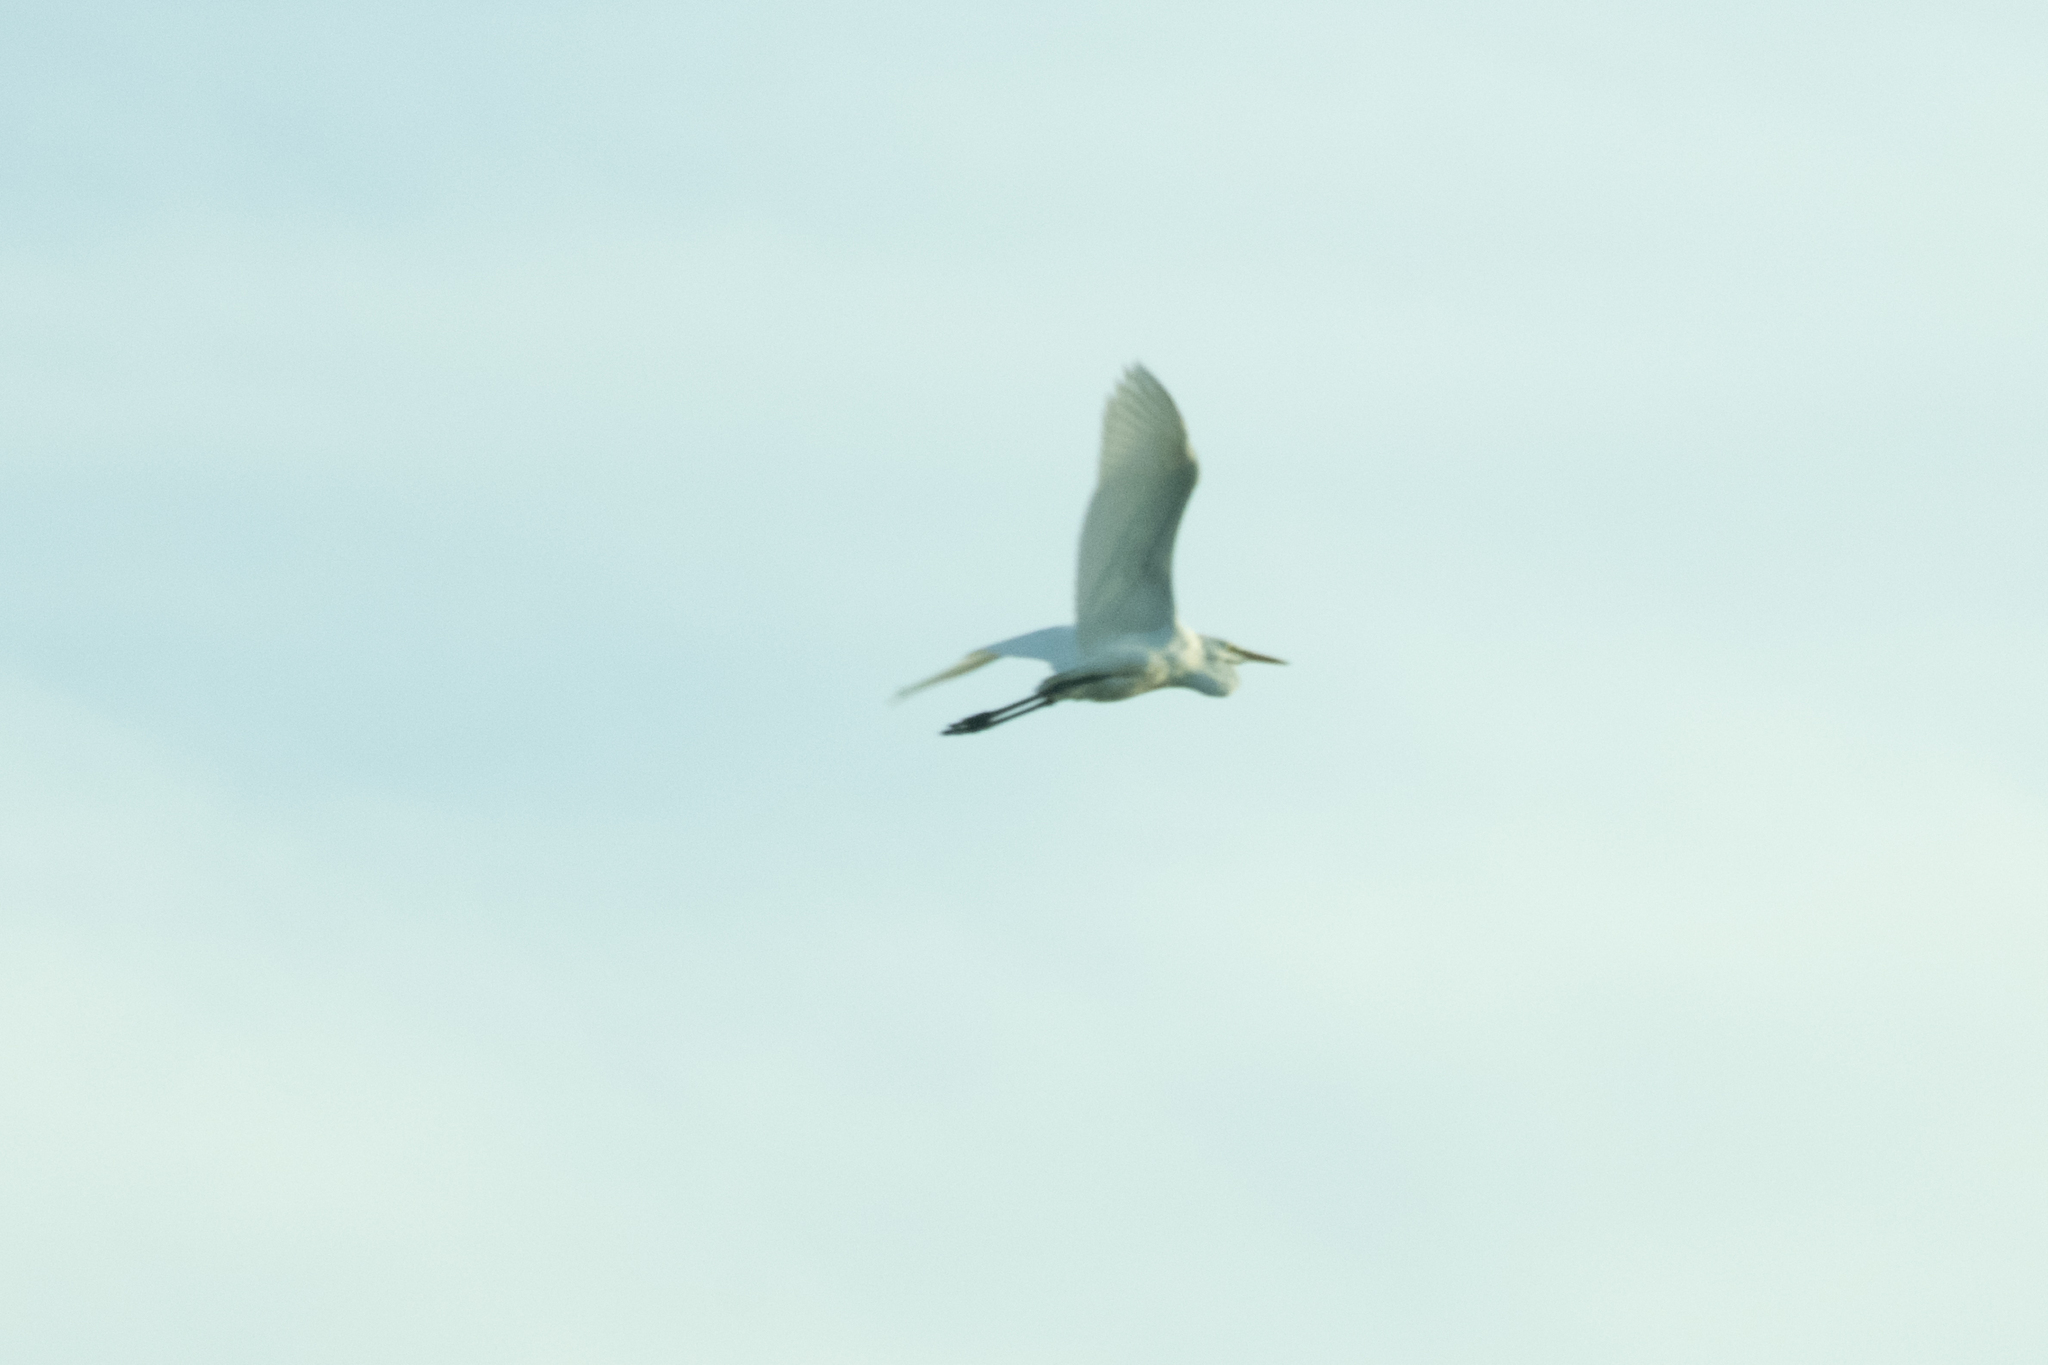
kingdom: Animalia
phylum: Chordata
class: Aves
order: Pelecaniformes
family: Ardeidae
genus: Ardea
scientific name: Ardea alba
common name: Great egret
